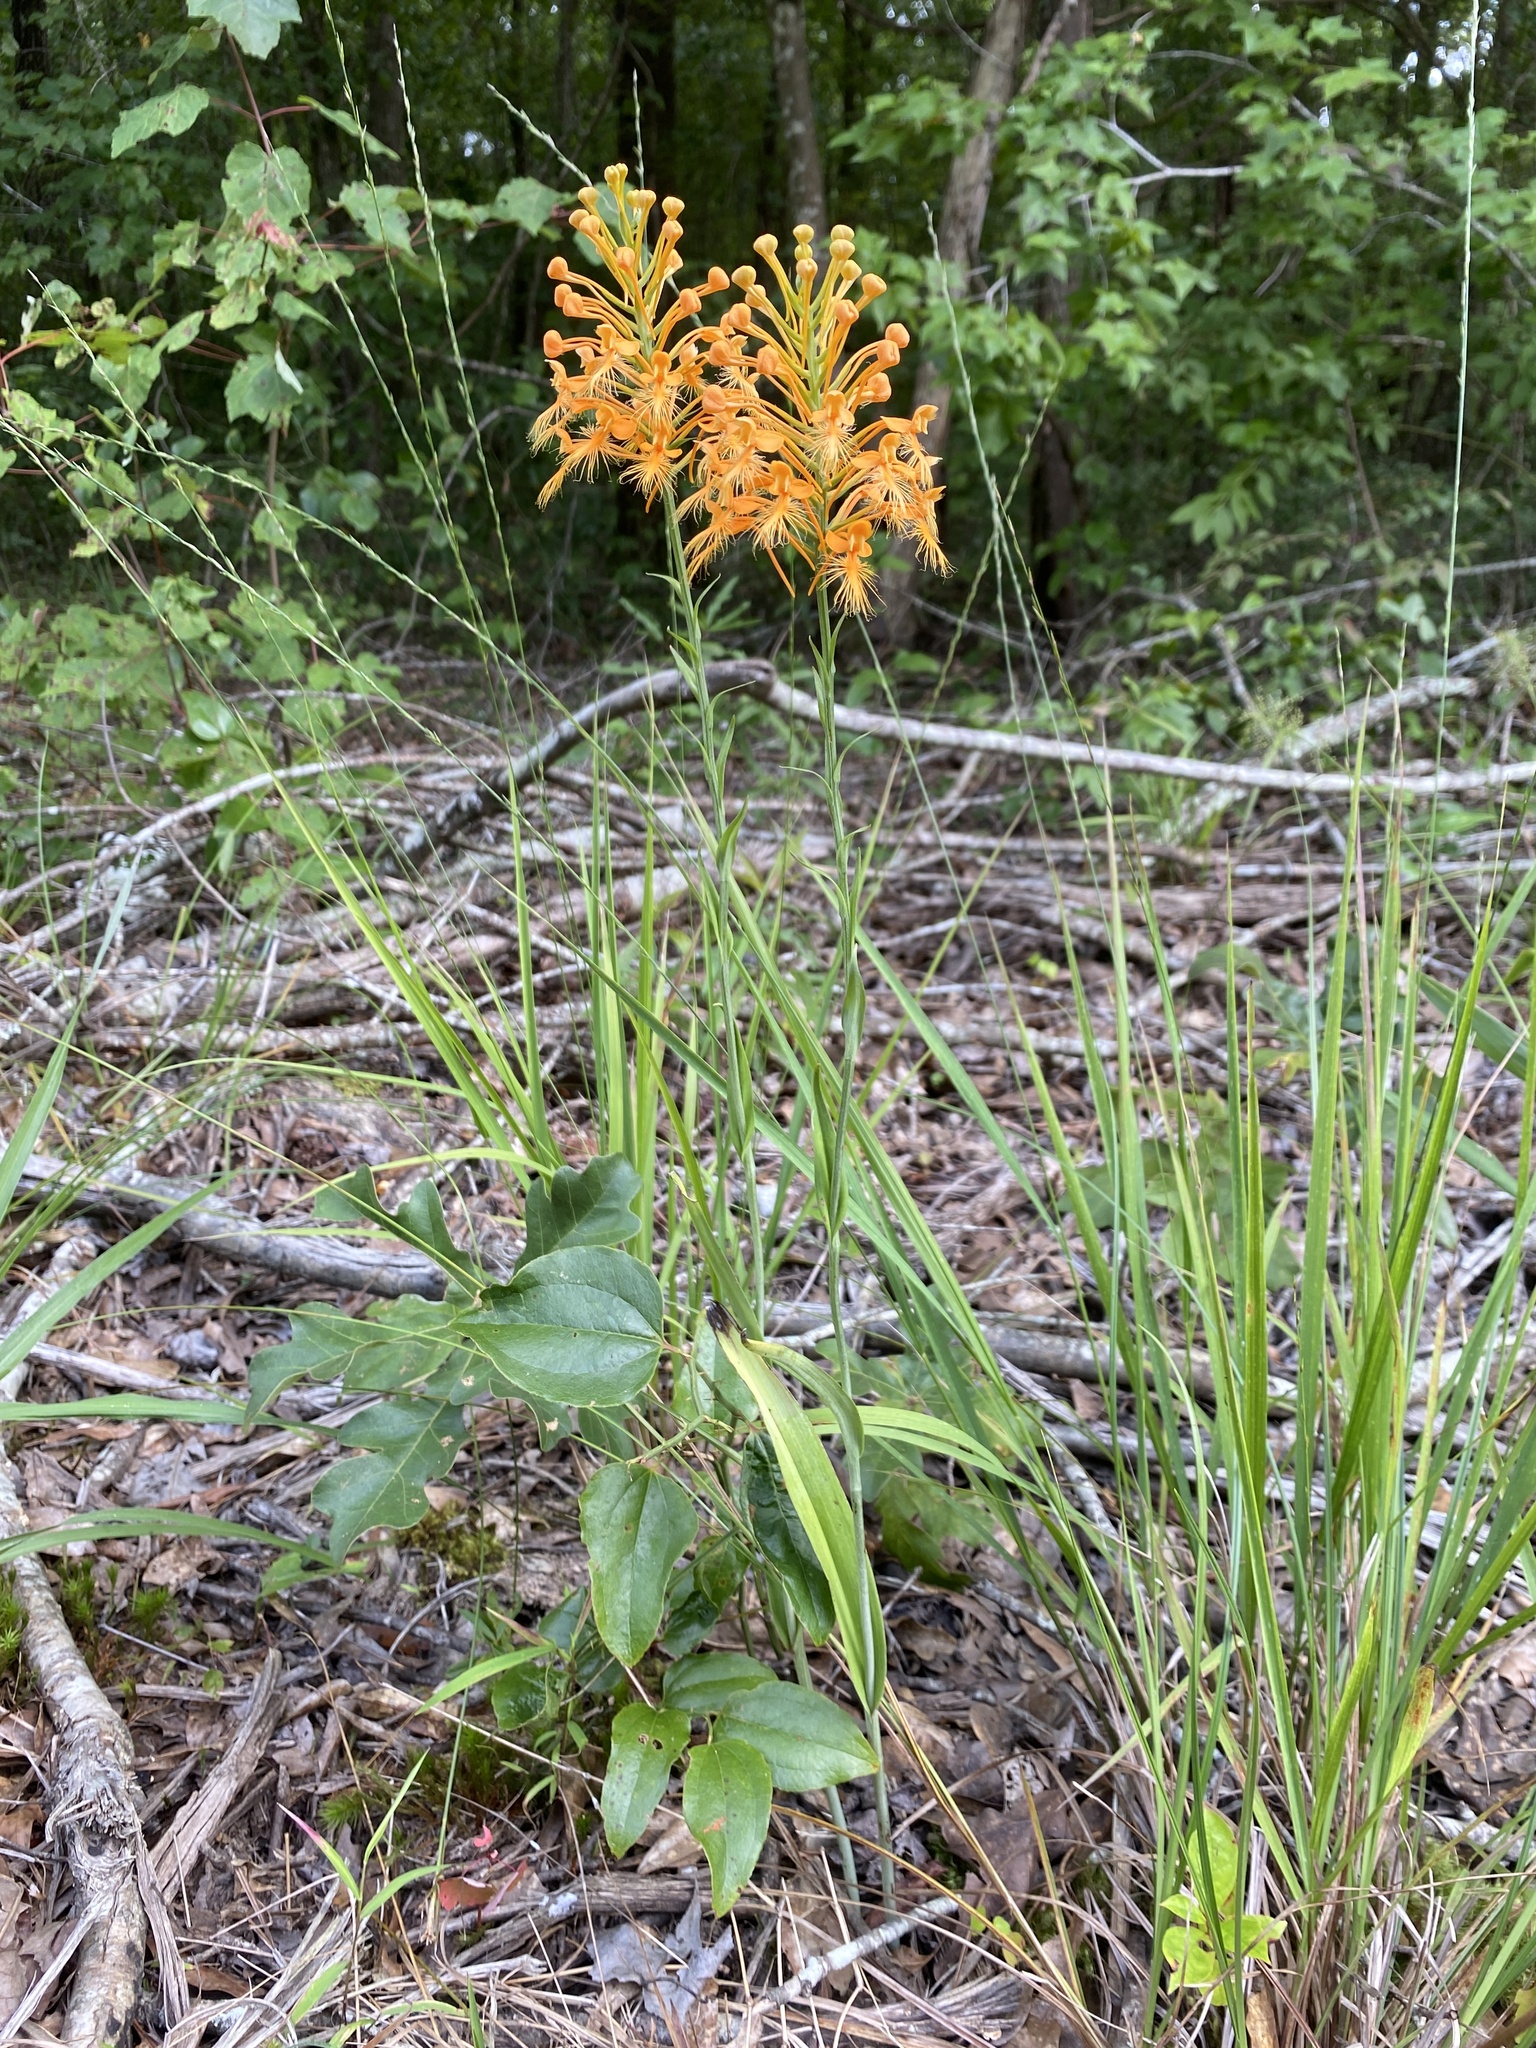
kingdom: Plantae
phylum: Tracheophyta
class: Liliopsida
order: Asparagales
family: Orchidaceae
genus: Platanthera
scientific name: Platanthera ciliaris
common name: Yellow fringed orchid
